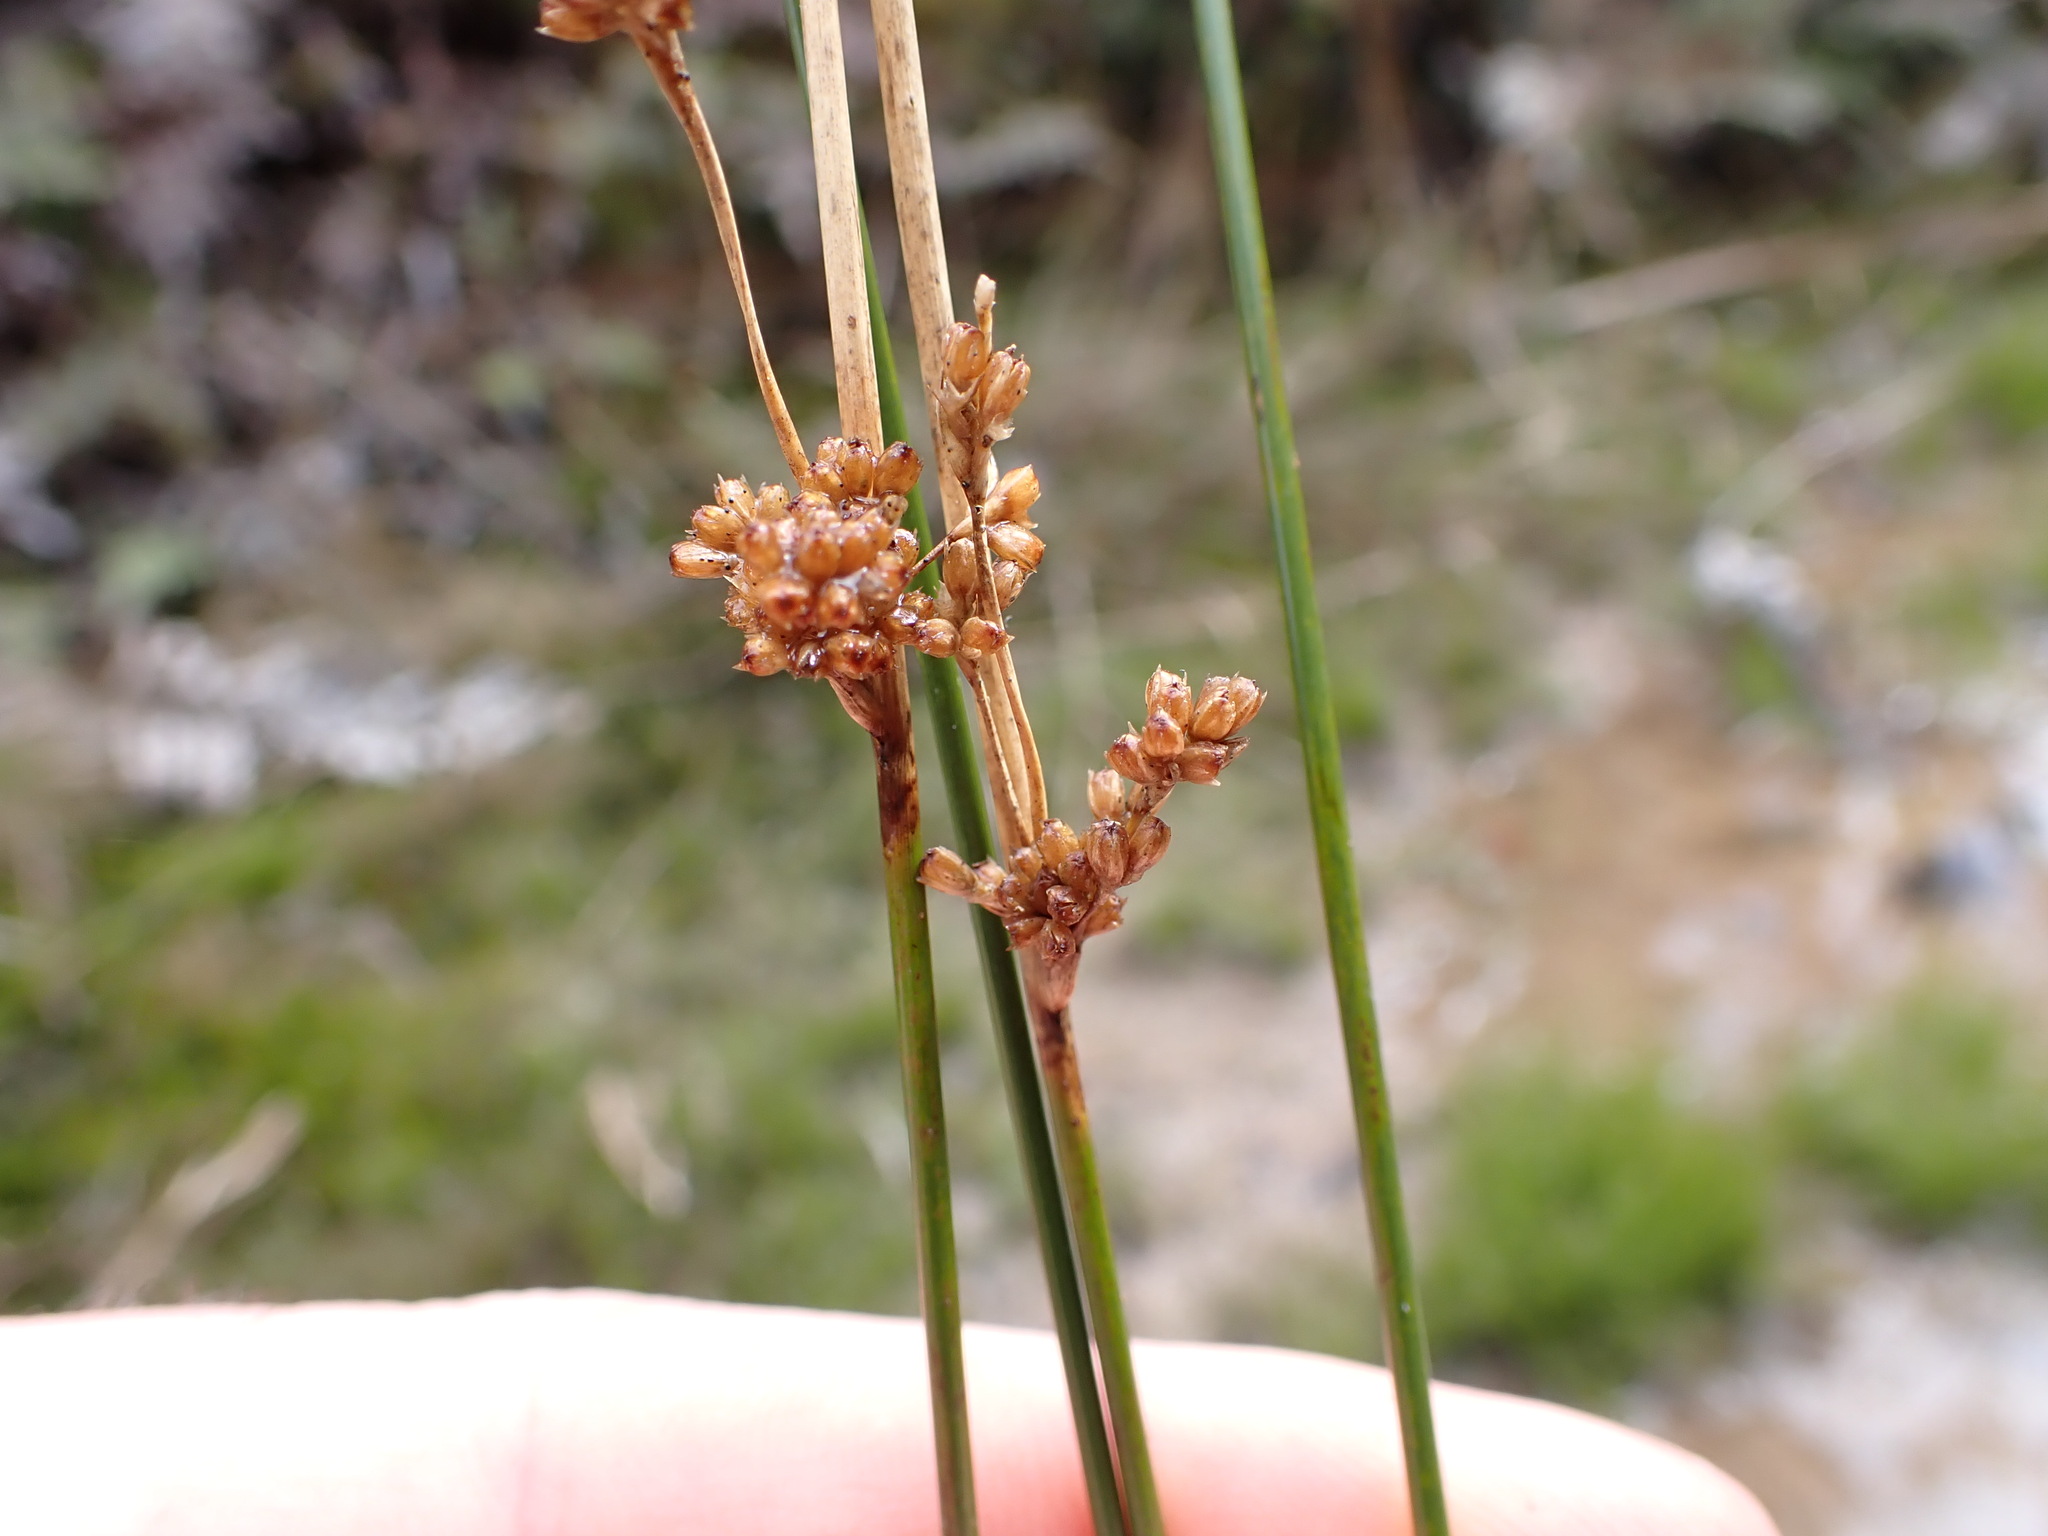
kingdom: Plantae
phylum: Tracheophyta
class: Liliopsida
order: Poales
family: Juncaceae
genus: Juncus
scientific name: Juncus edgariae
